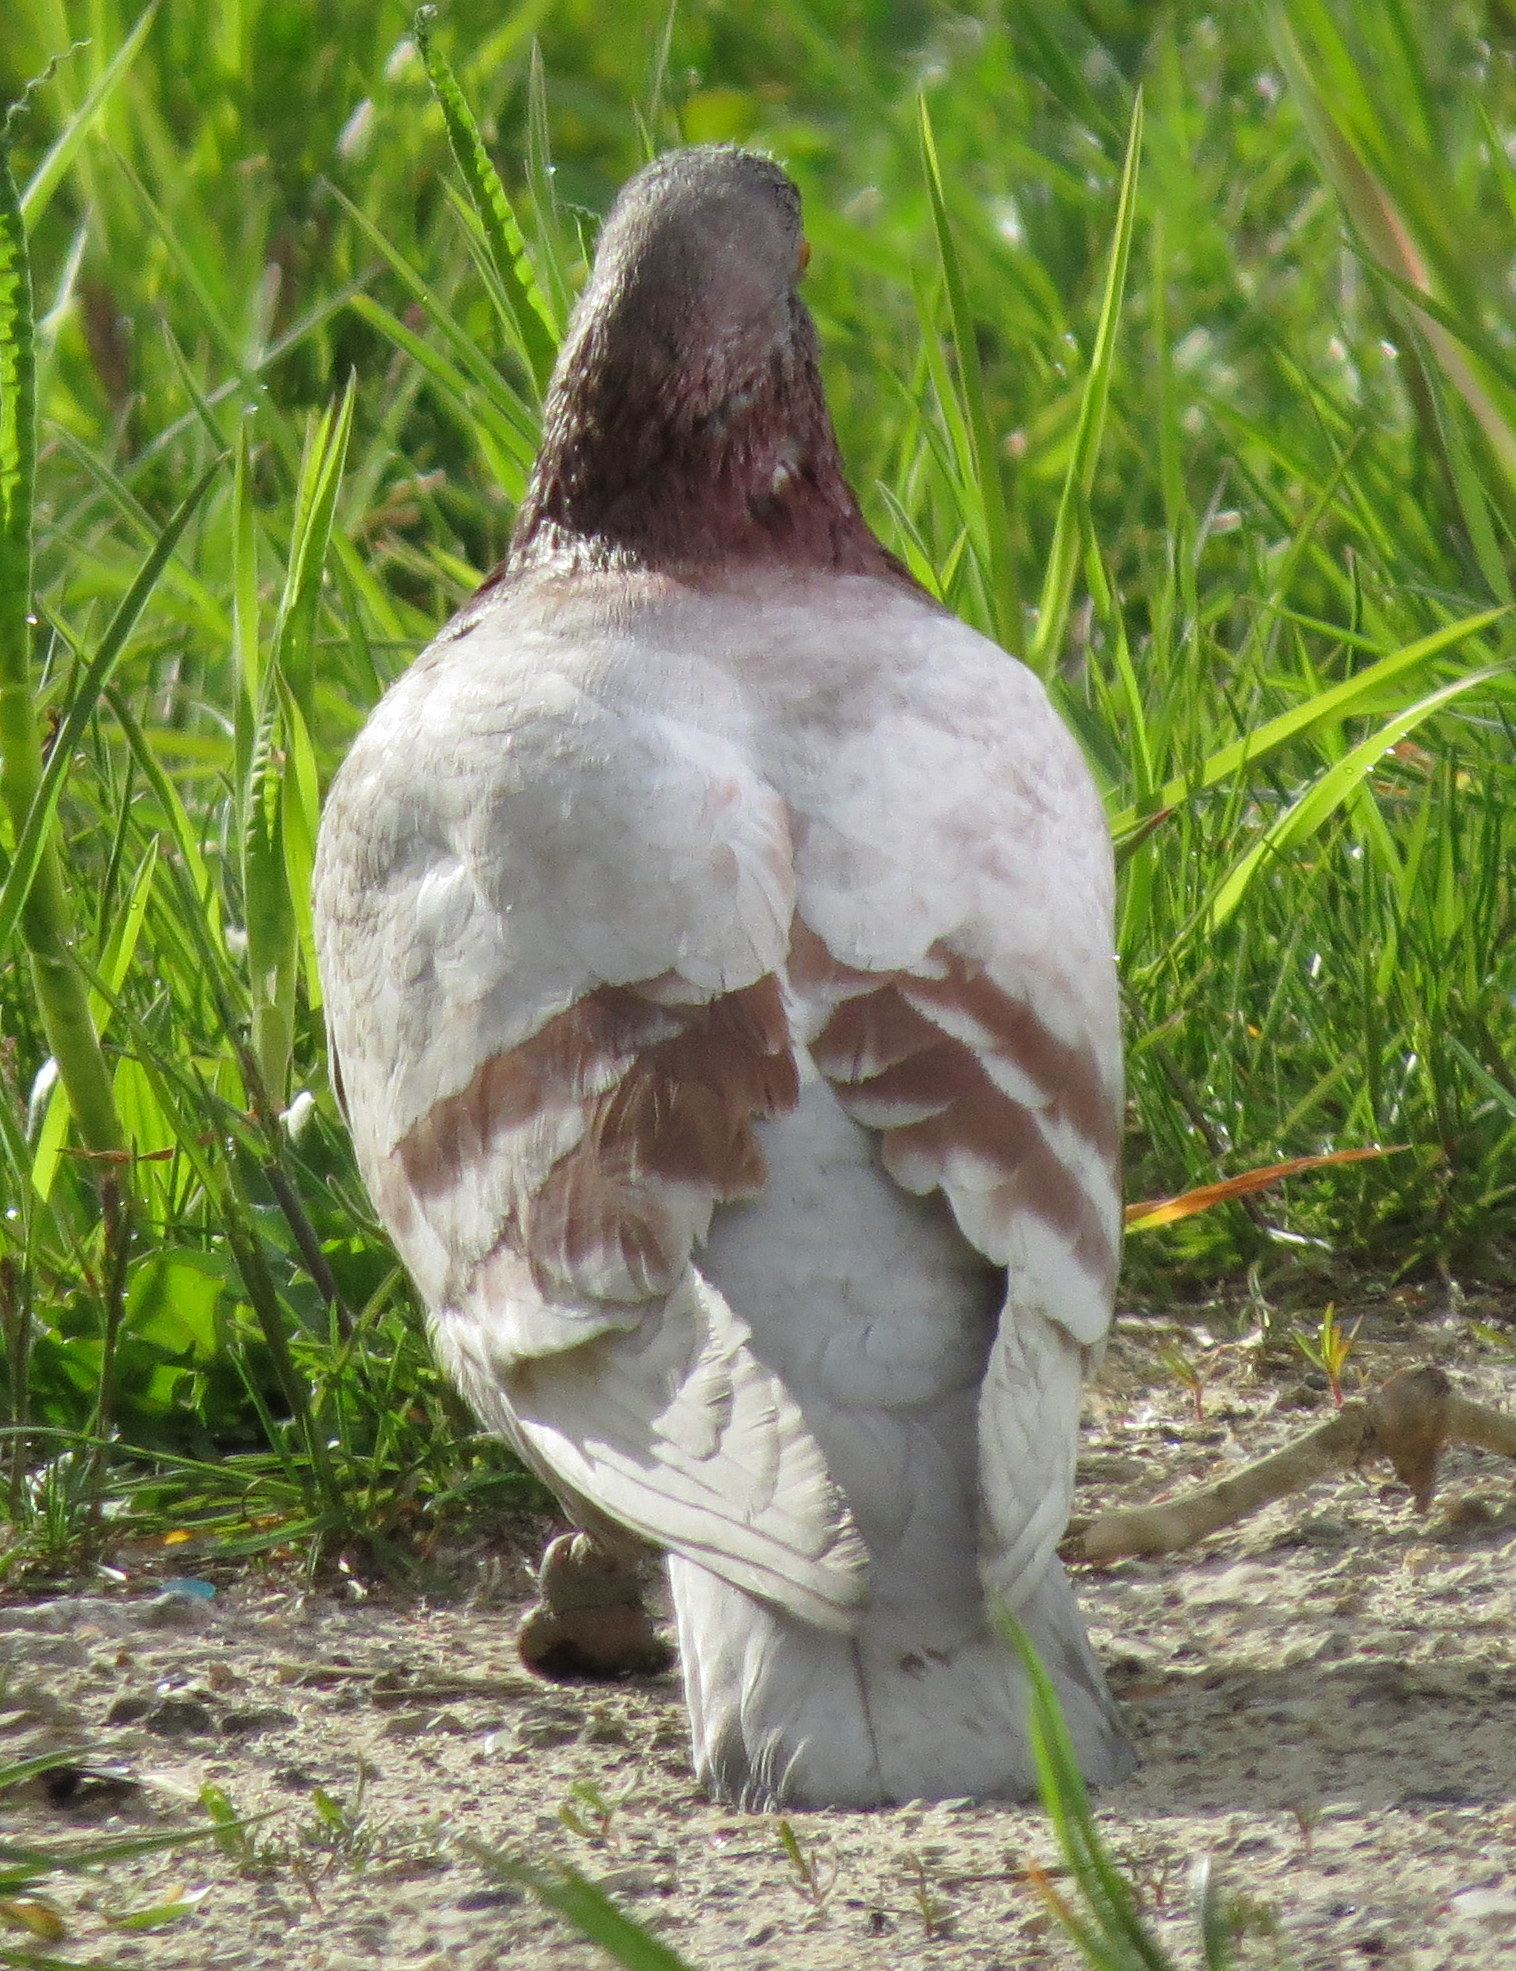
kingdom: Animalia
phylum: Chordata
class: Aves
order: Columbiformes
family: Columbidae
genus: Columba
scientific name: Columba livia
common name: Rock pigeon
